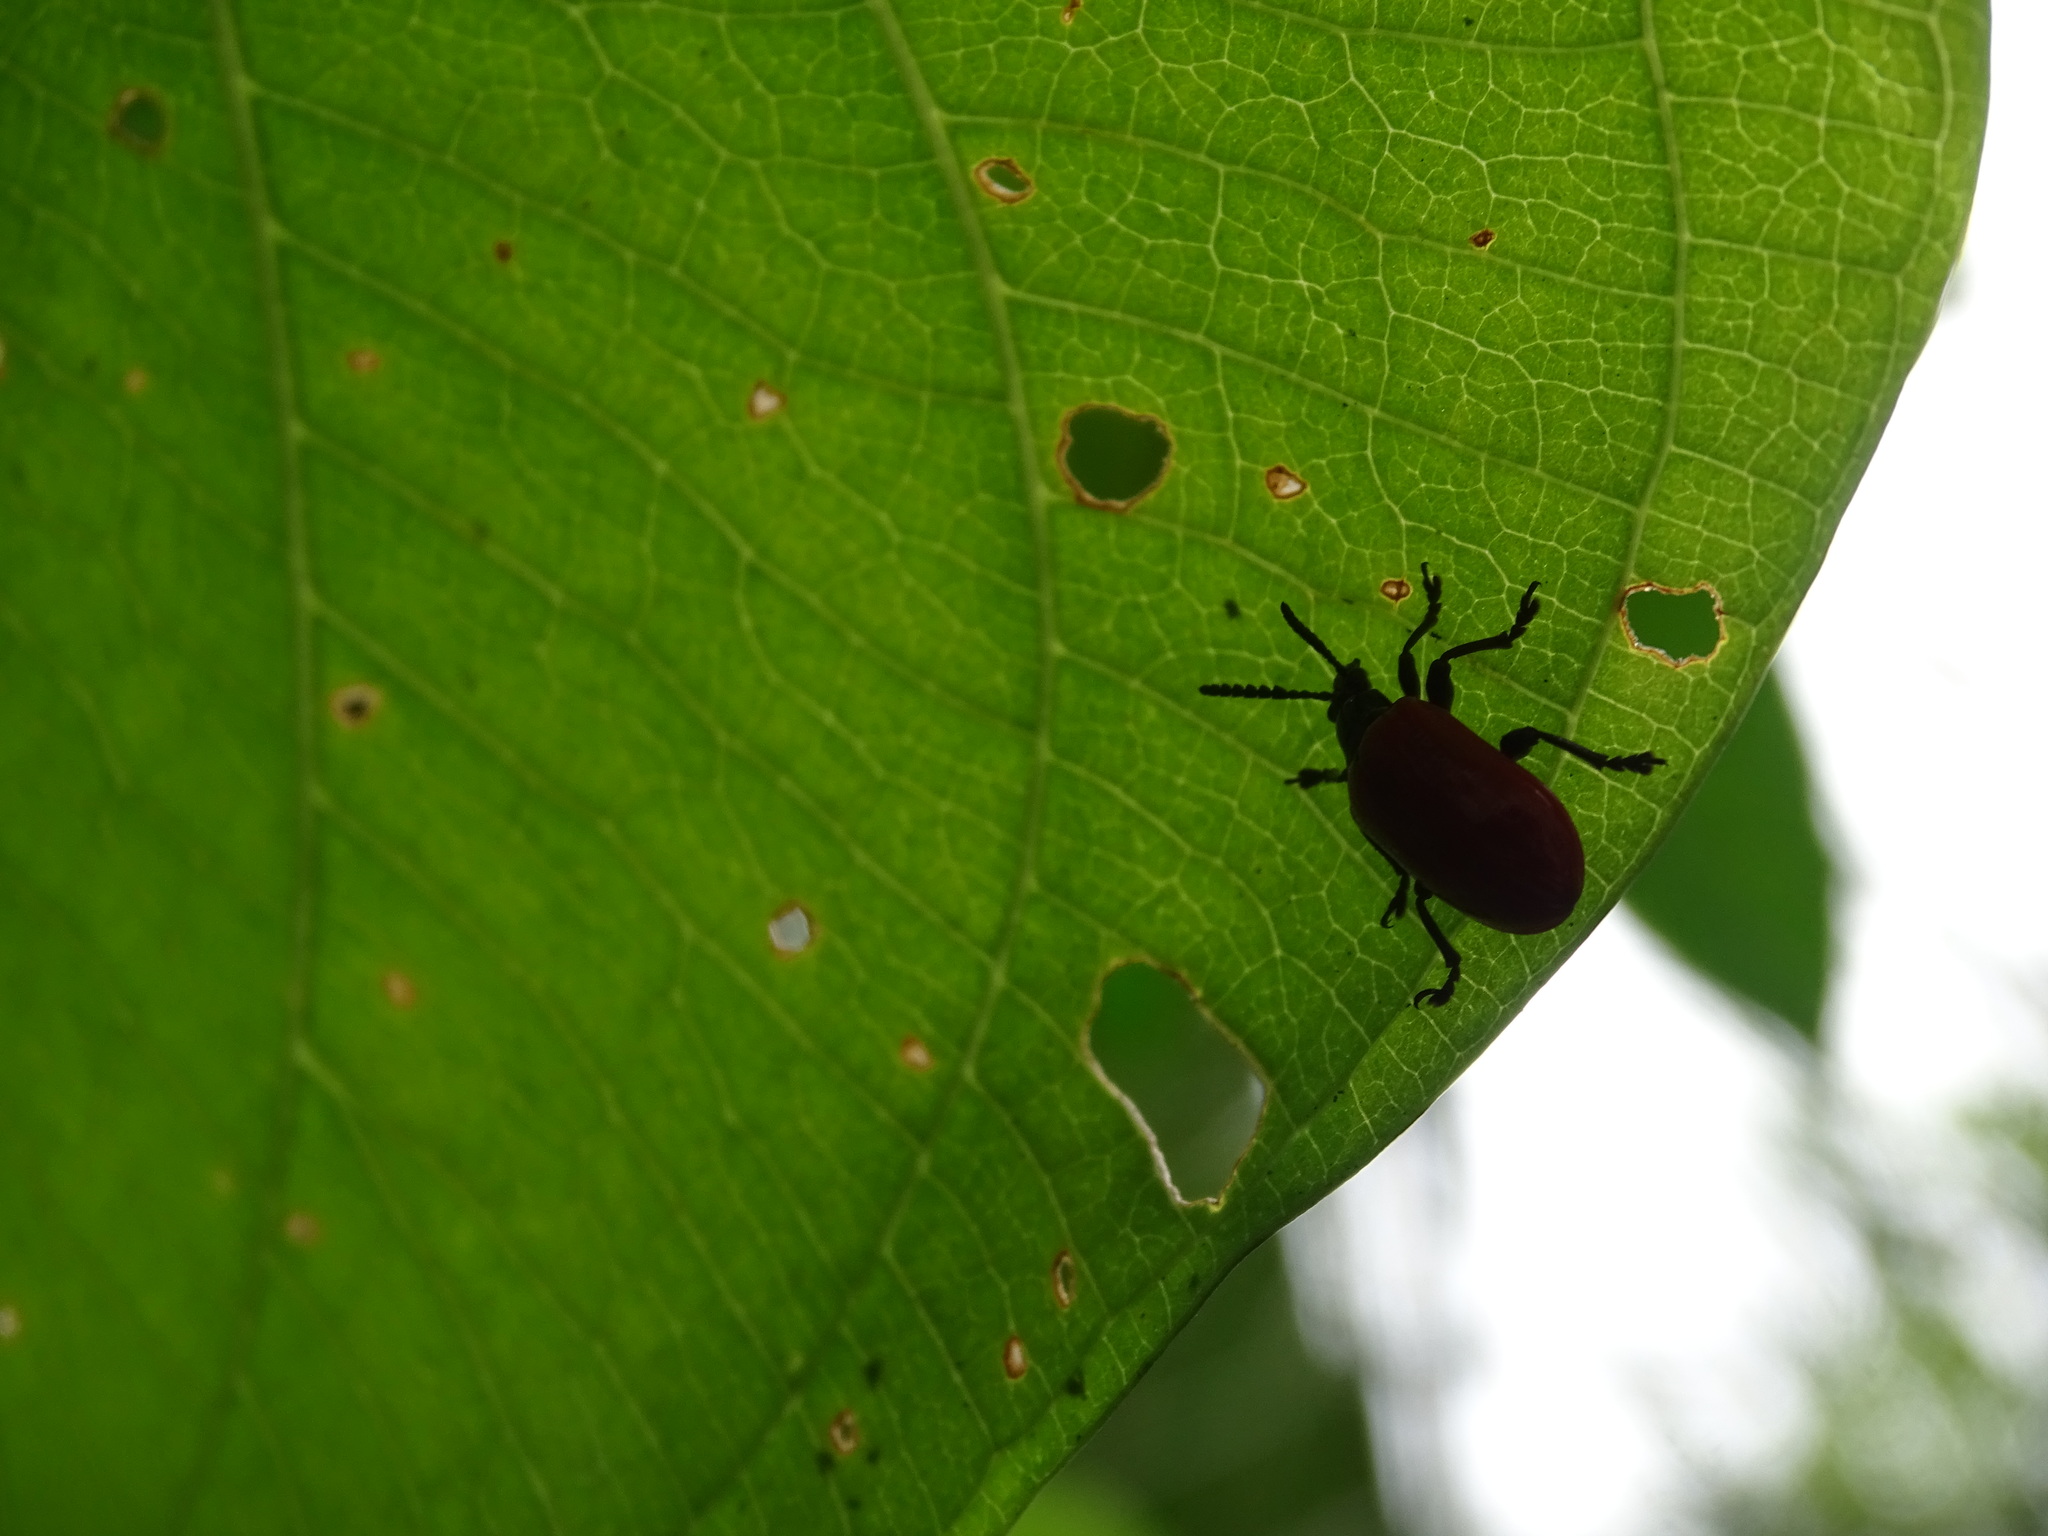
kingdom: Animalia
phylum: Arthropoda
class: Insecta
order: Coleoptera
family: Chrysomelidae
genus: Lilioceris
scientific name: Lilioceris cheni
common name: Leaf beetle
